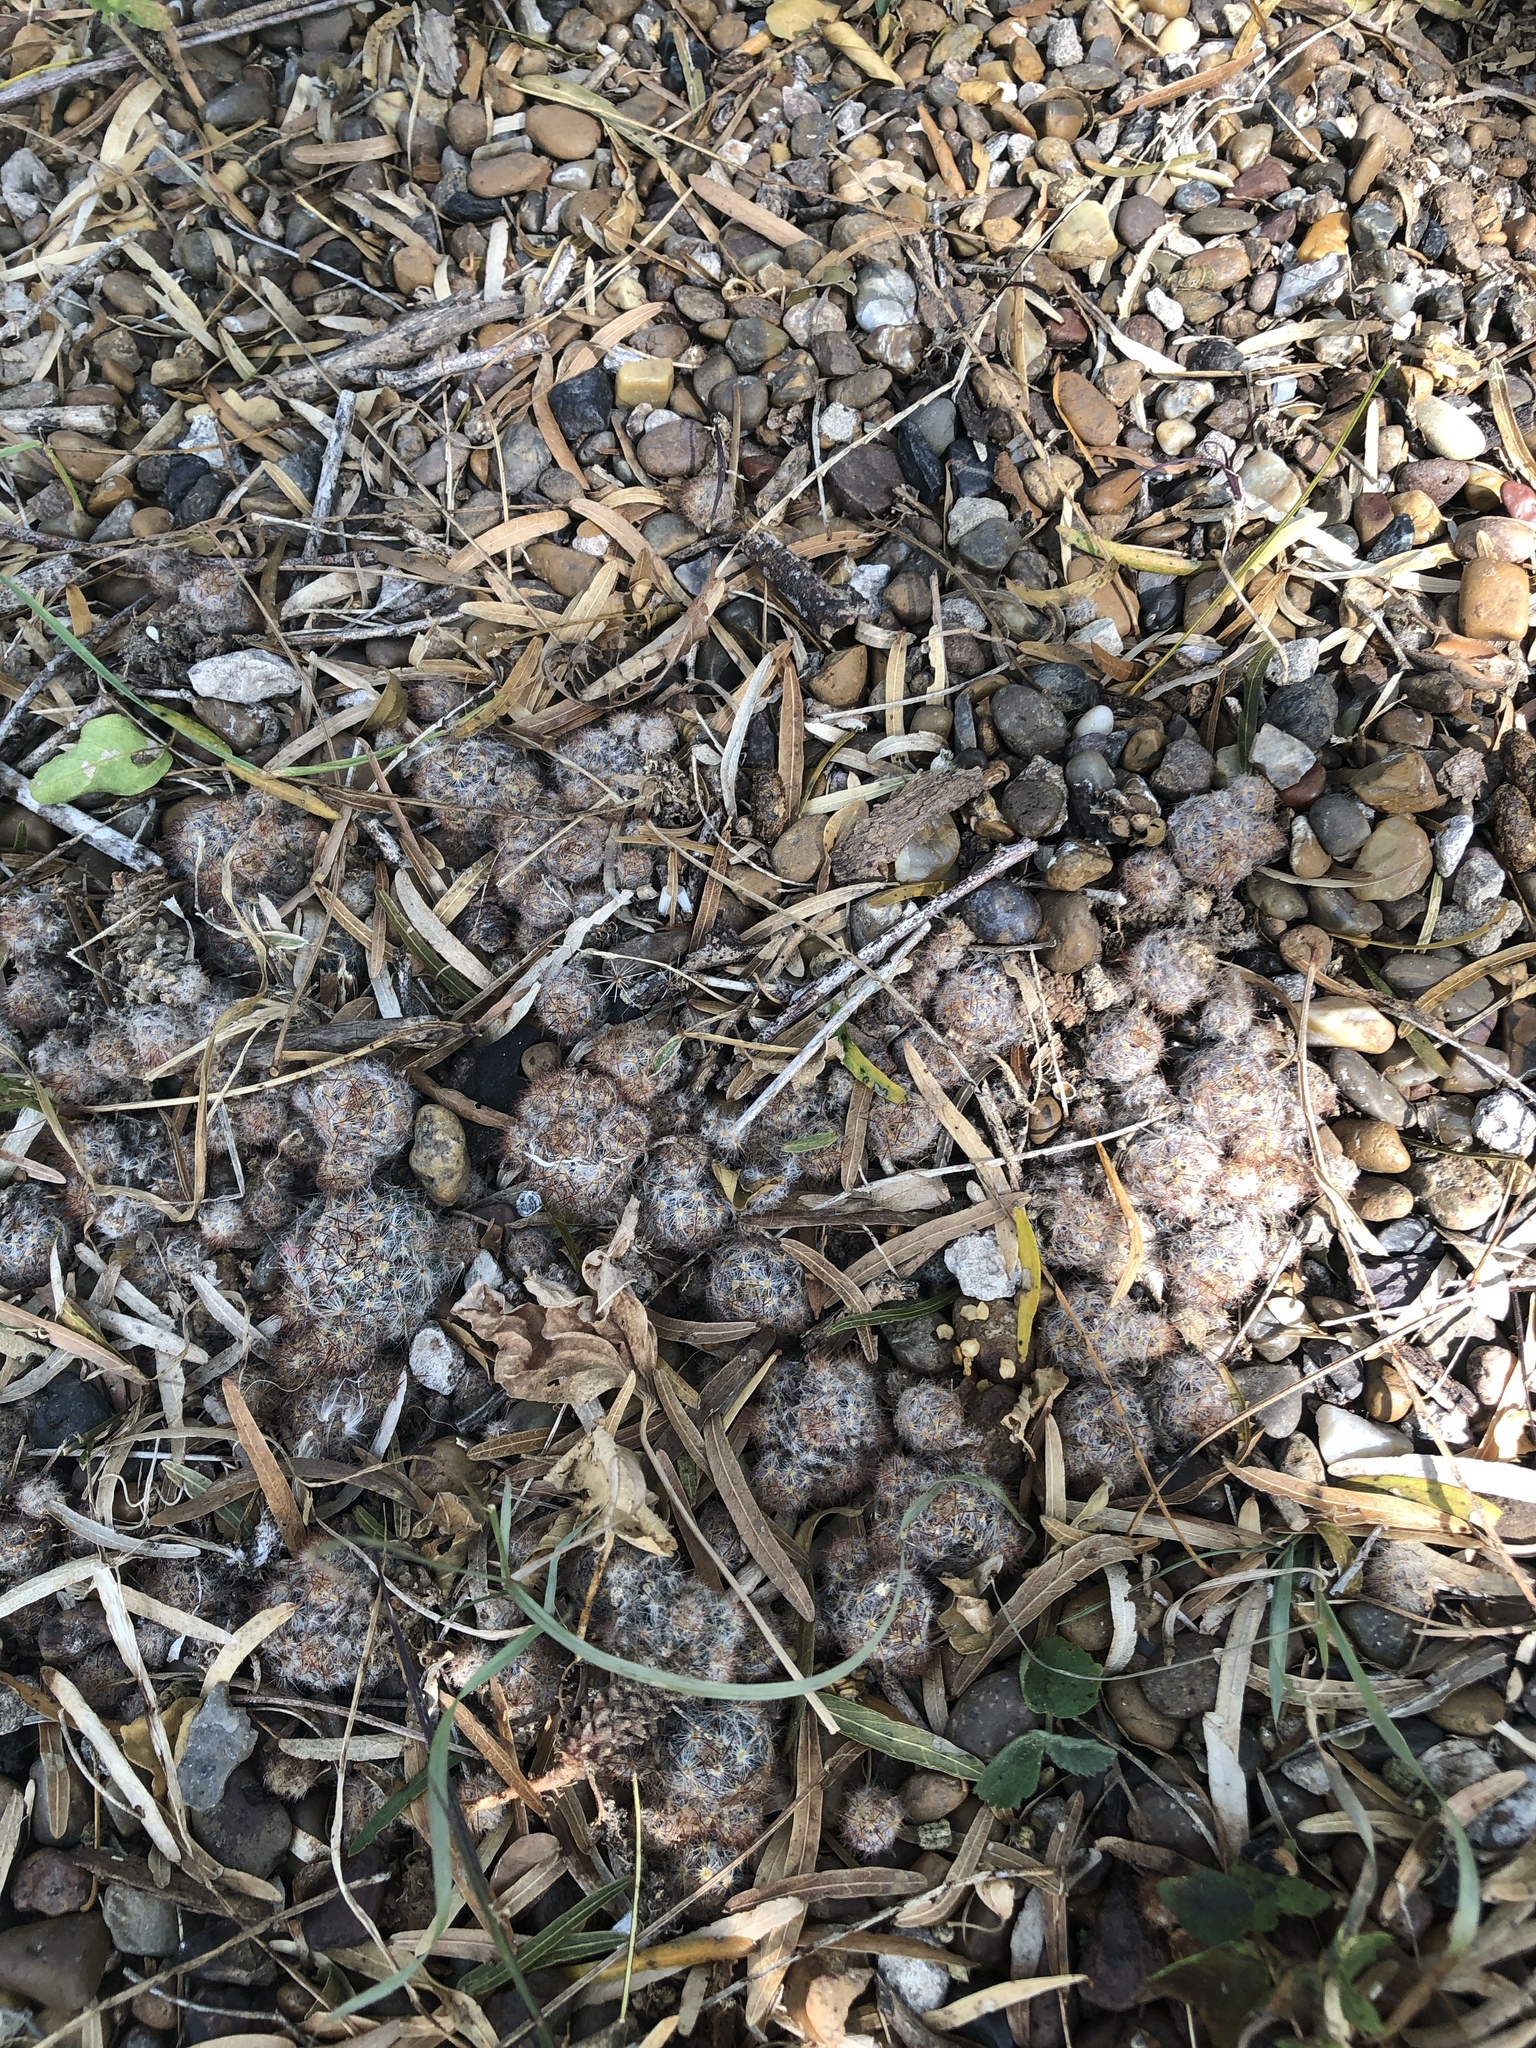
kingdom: Plantae
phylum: Tracheophyta
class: Magnoliopsida
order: Caryophyllales
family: Cactaceae
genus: Mammillaria
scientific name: Mammillaria prolifera
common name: Texas nipple cactus
